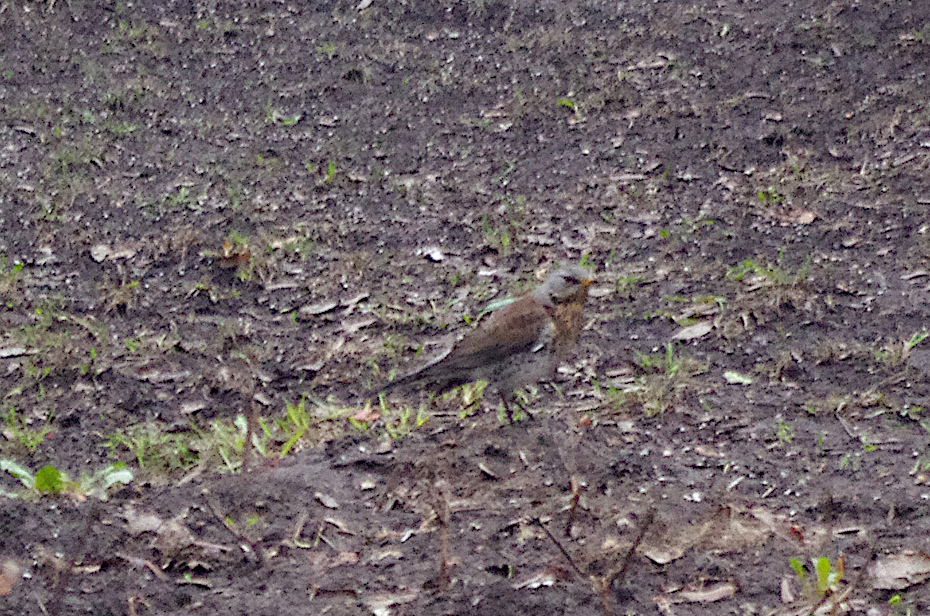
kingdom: Animalia
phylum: Chordata
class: Aves
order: Passeriformes
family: Turdidae
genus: Turdus
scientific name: Turdus pilaris
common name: Fieldfare
